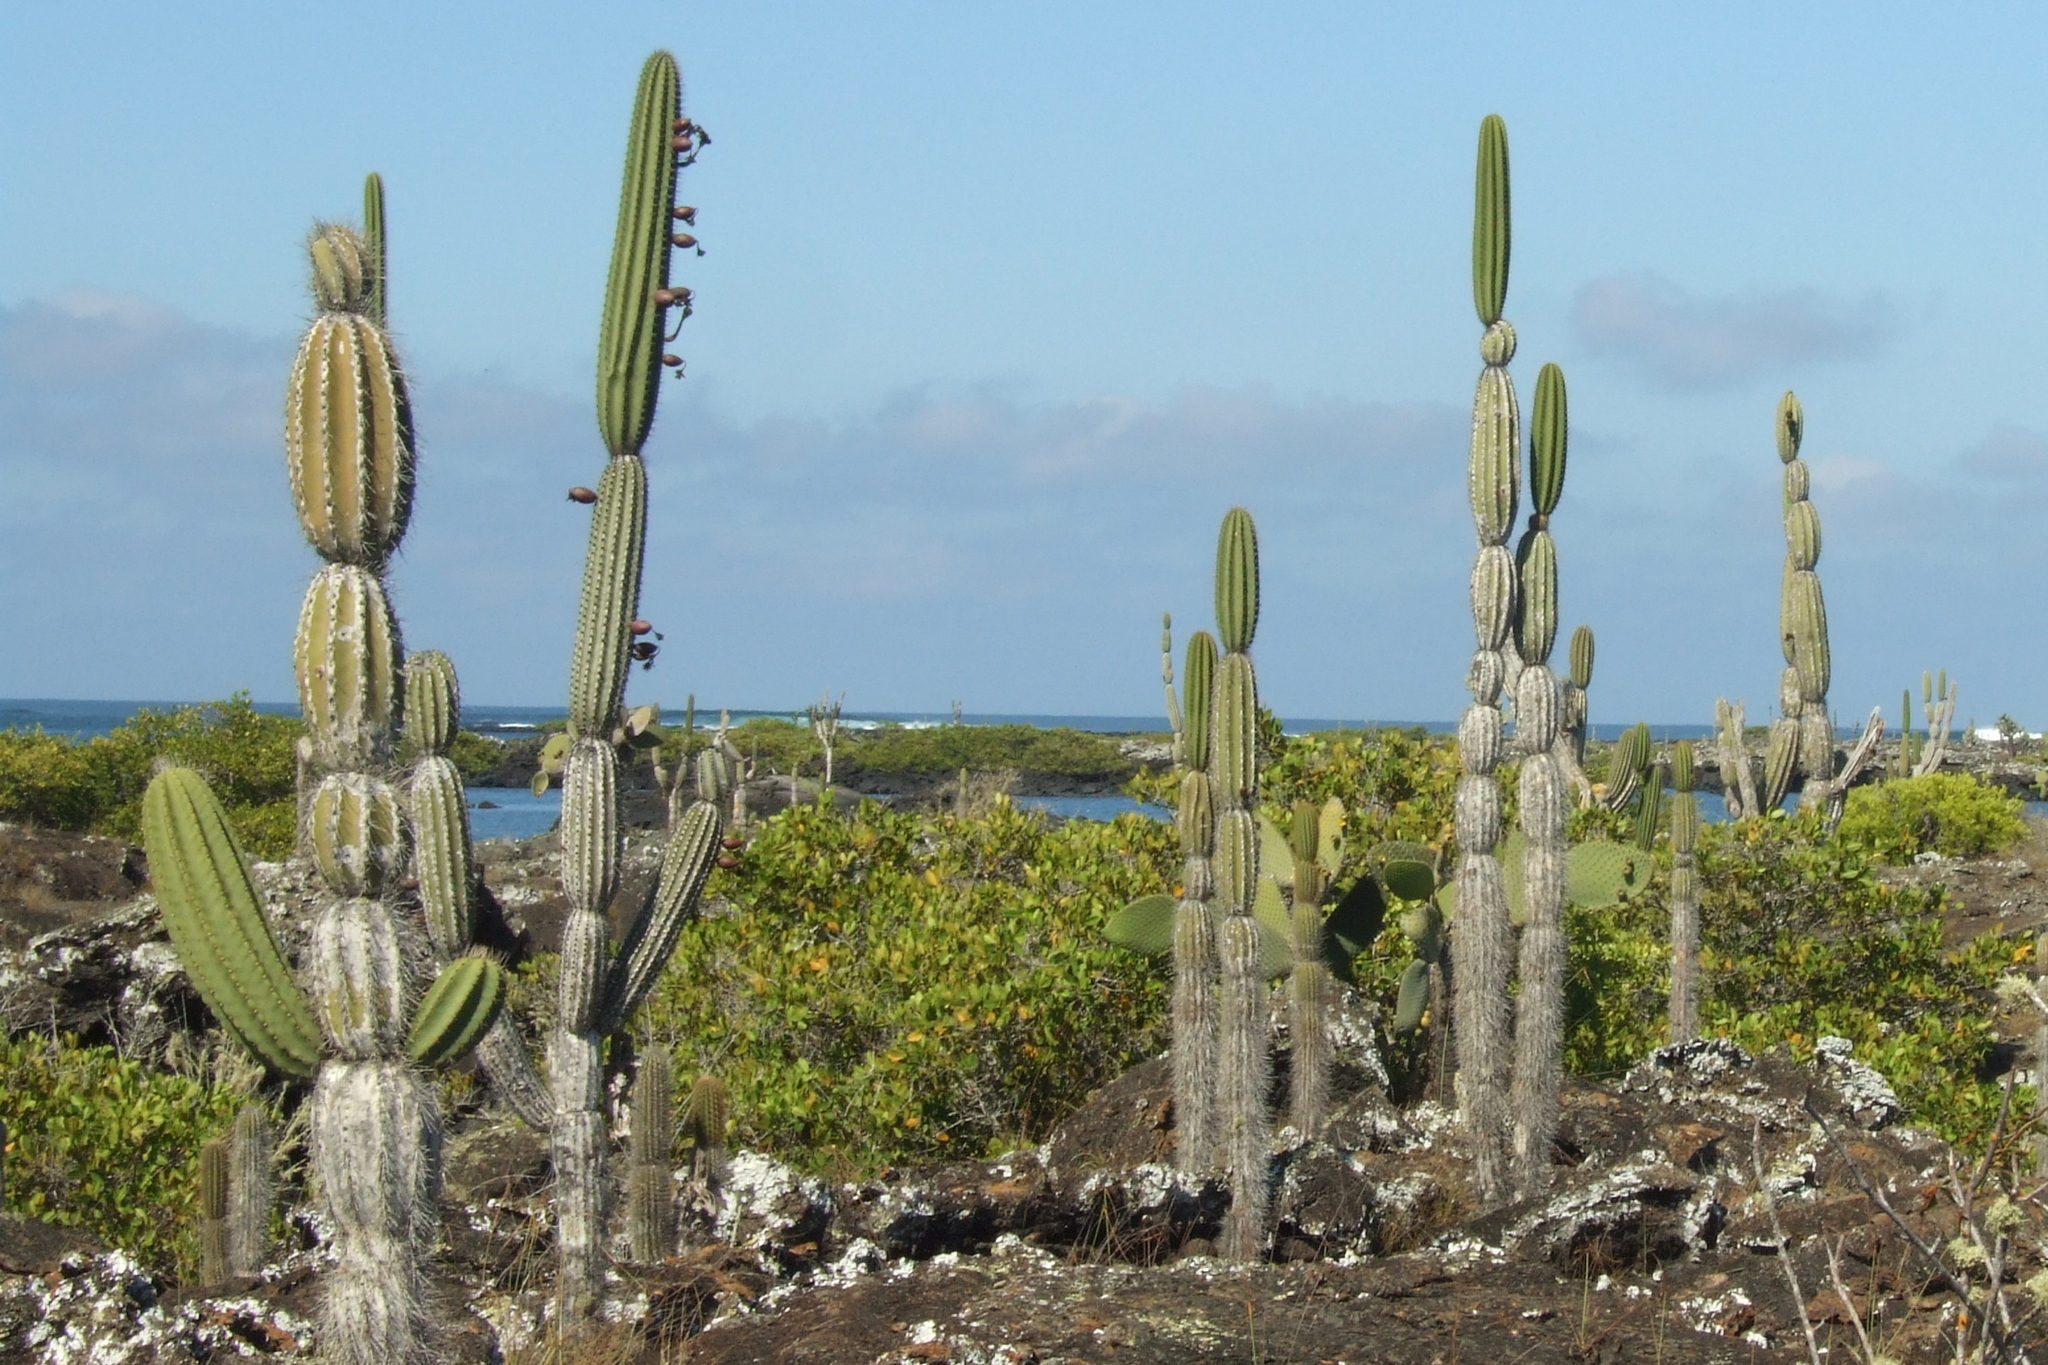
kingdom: Plantae
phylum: Tracheophyta
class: Magnoliopsida
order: Caryophyllales
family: Cactaceae
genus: Jasminocereus
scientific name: Jasminocereus thouarsii
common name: Candelabra cactus
